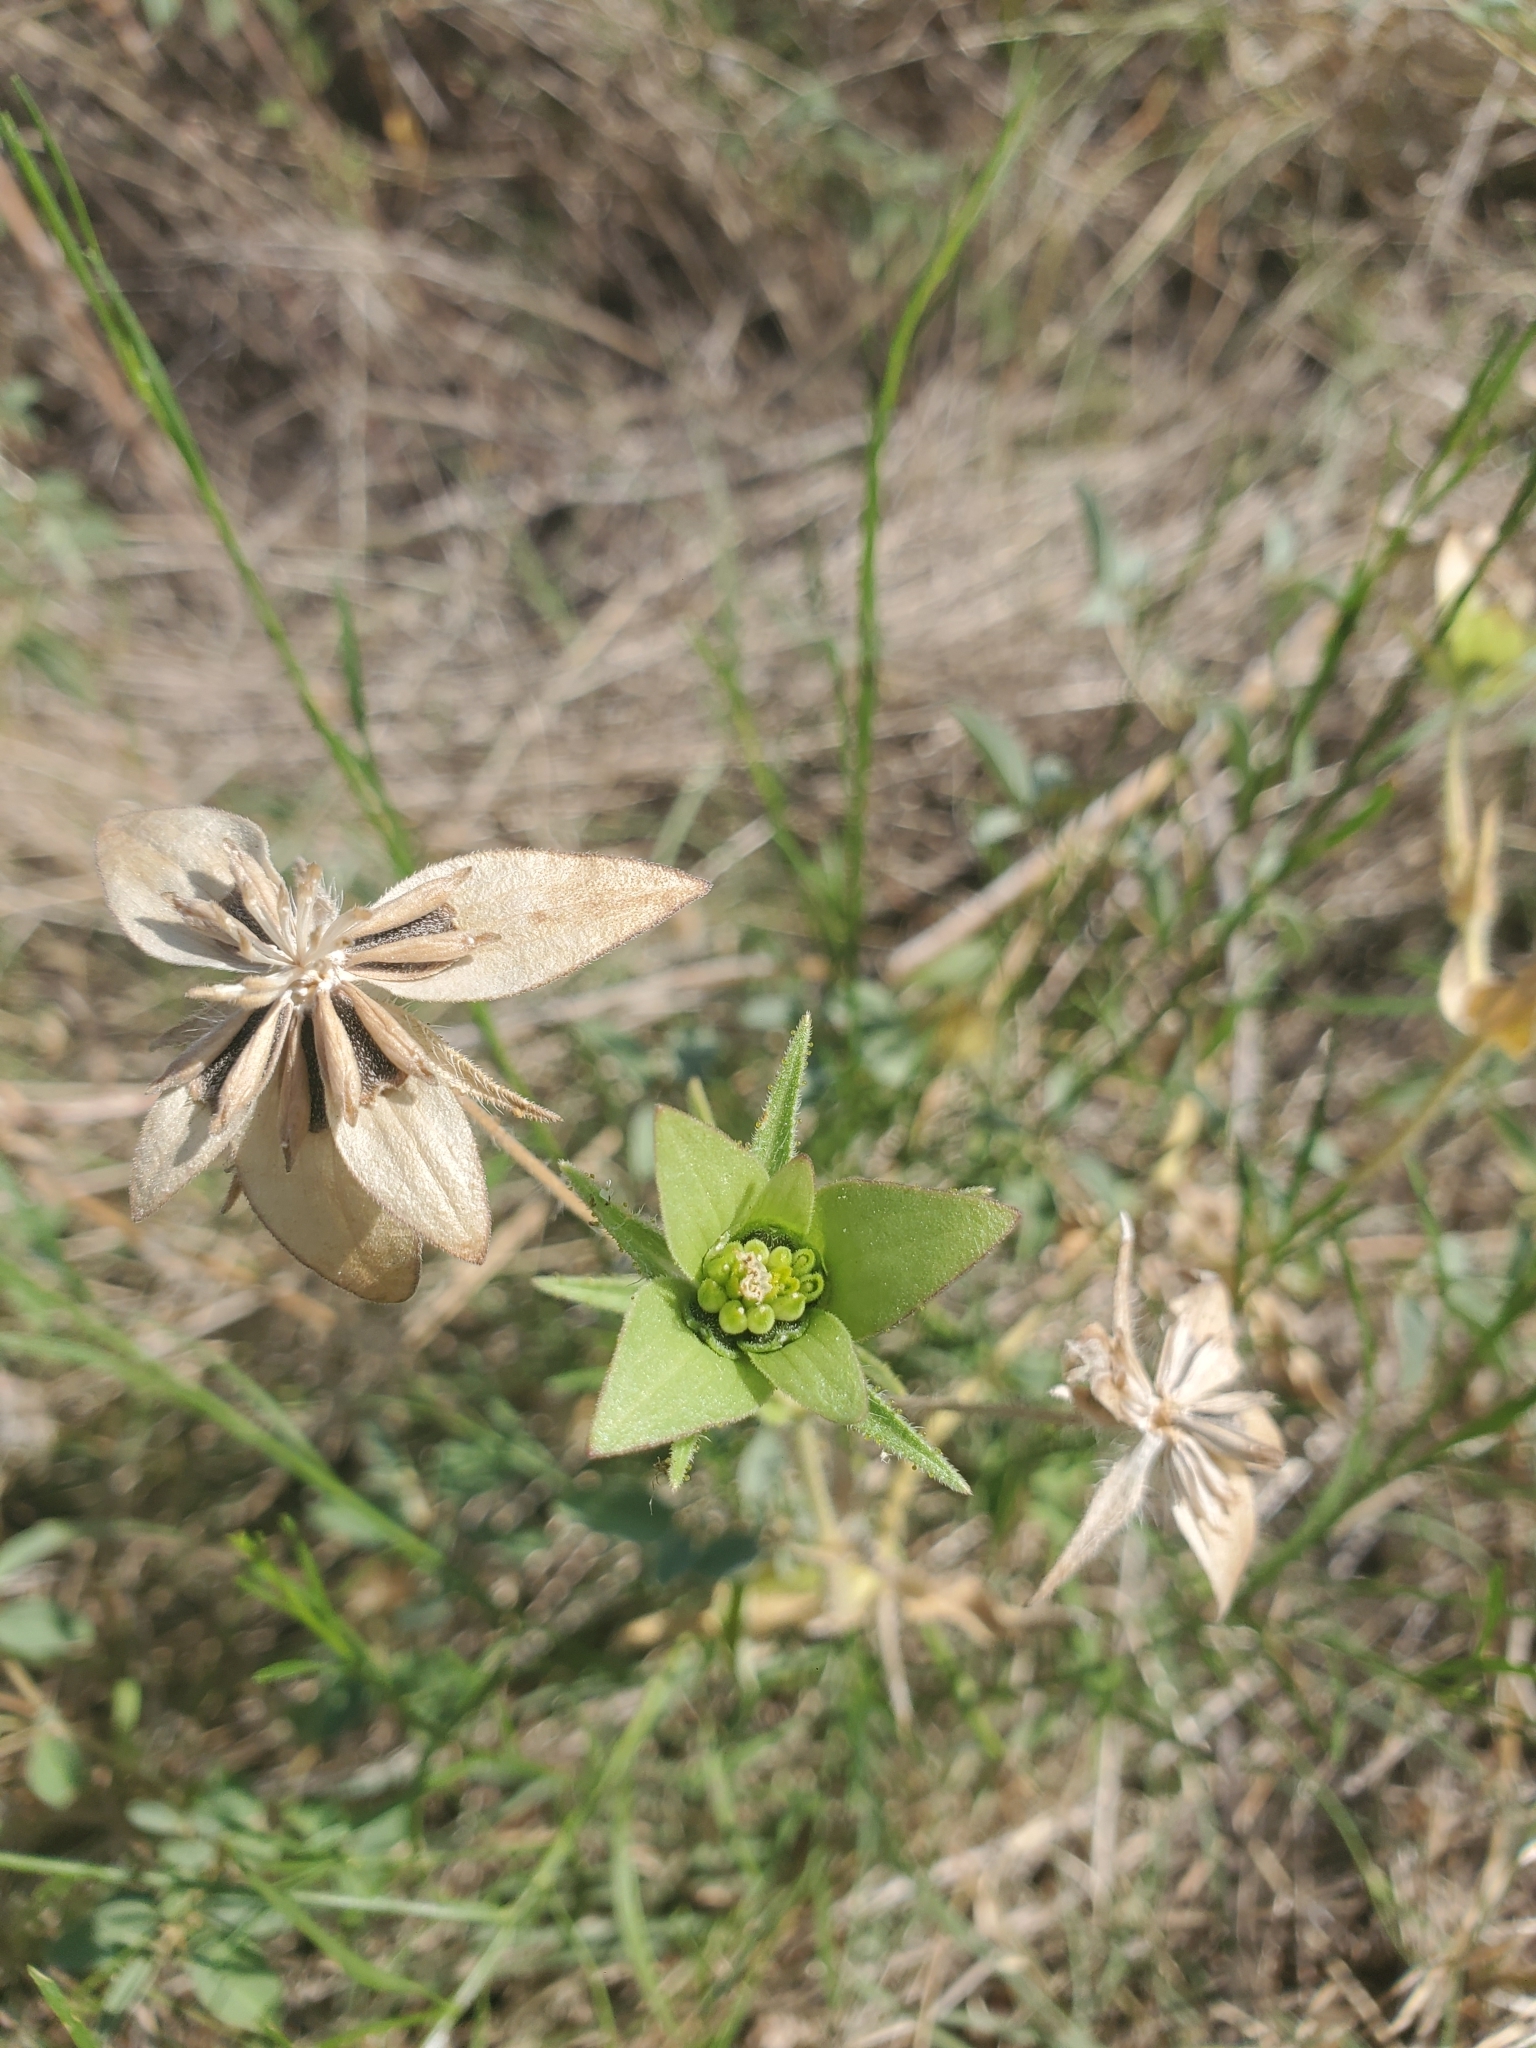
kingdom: Plantae
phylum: Tracheophyta
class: Magnoliopsida
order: Asterales
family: Asteraceae
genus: Lindheimera
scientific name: Lindheimera texana
